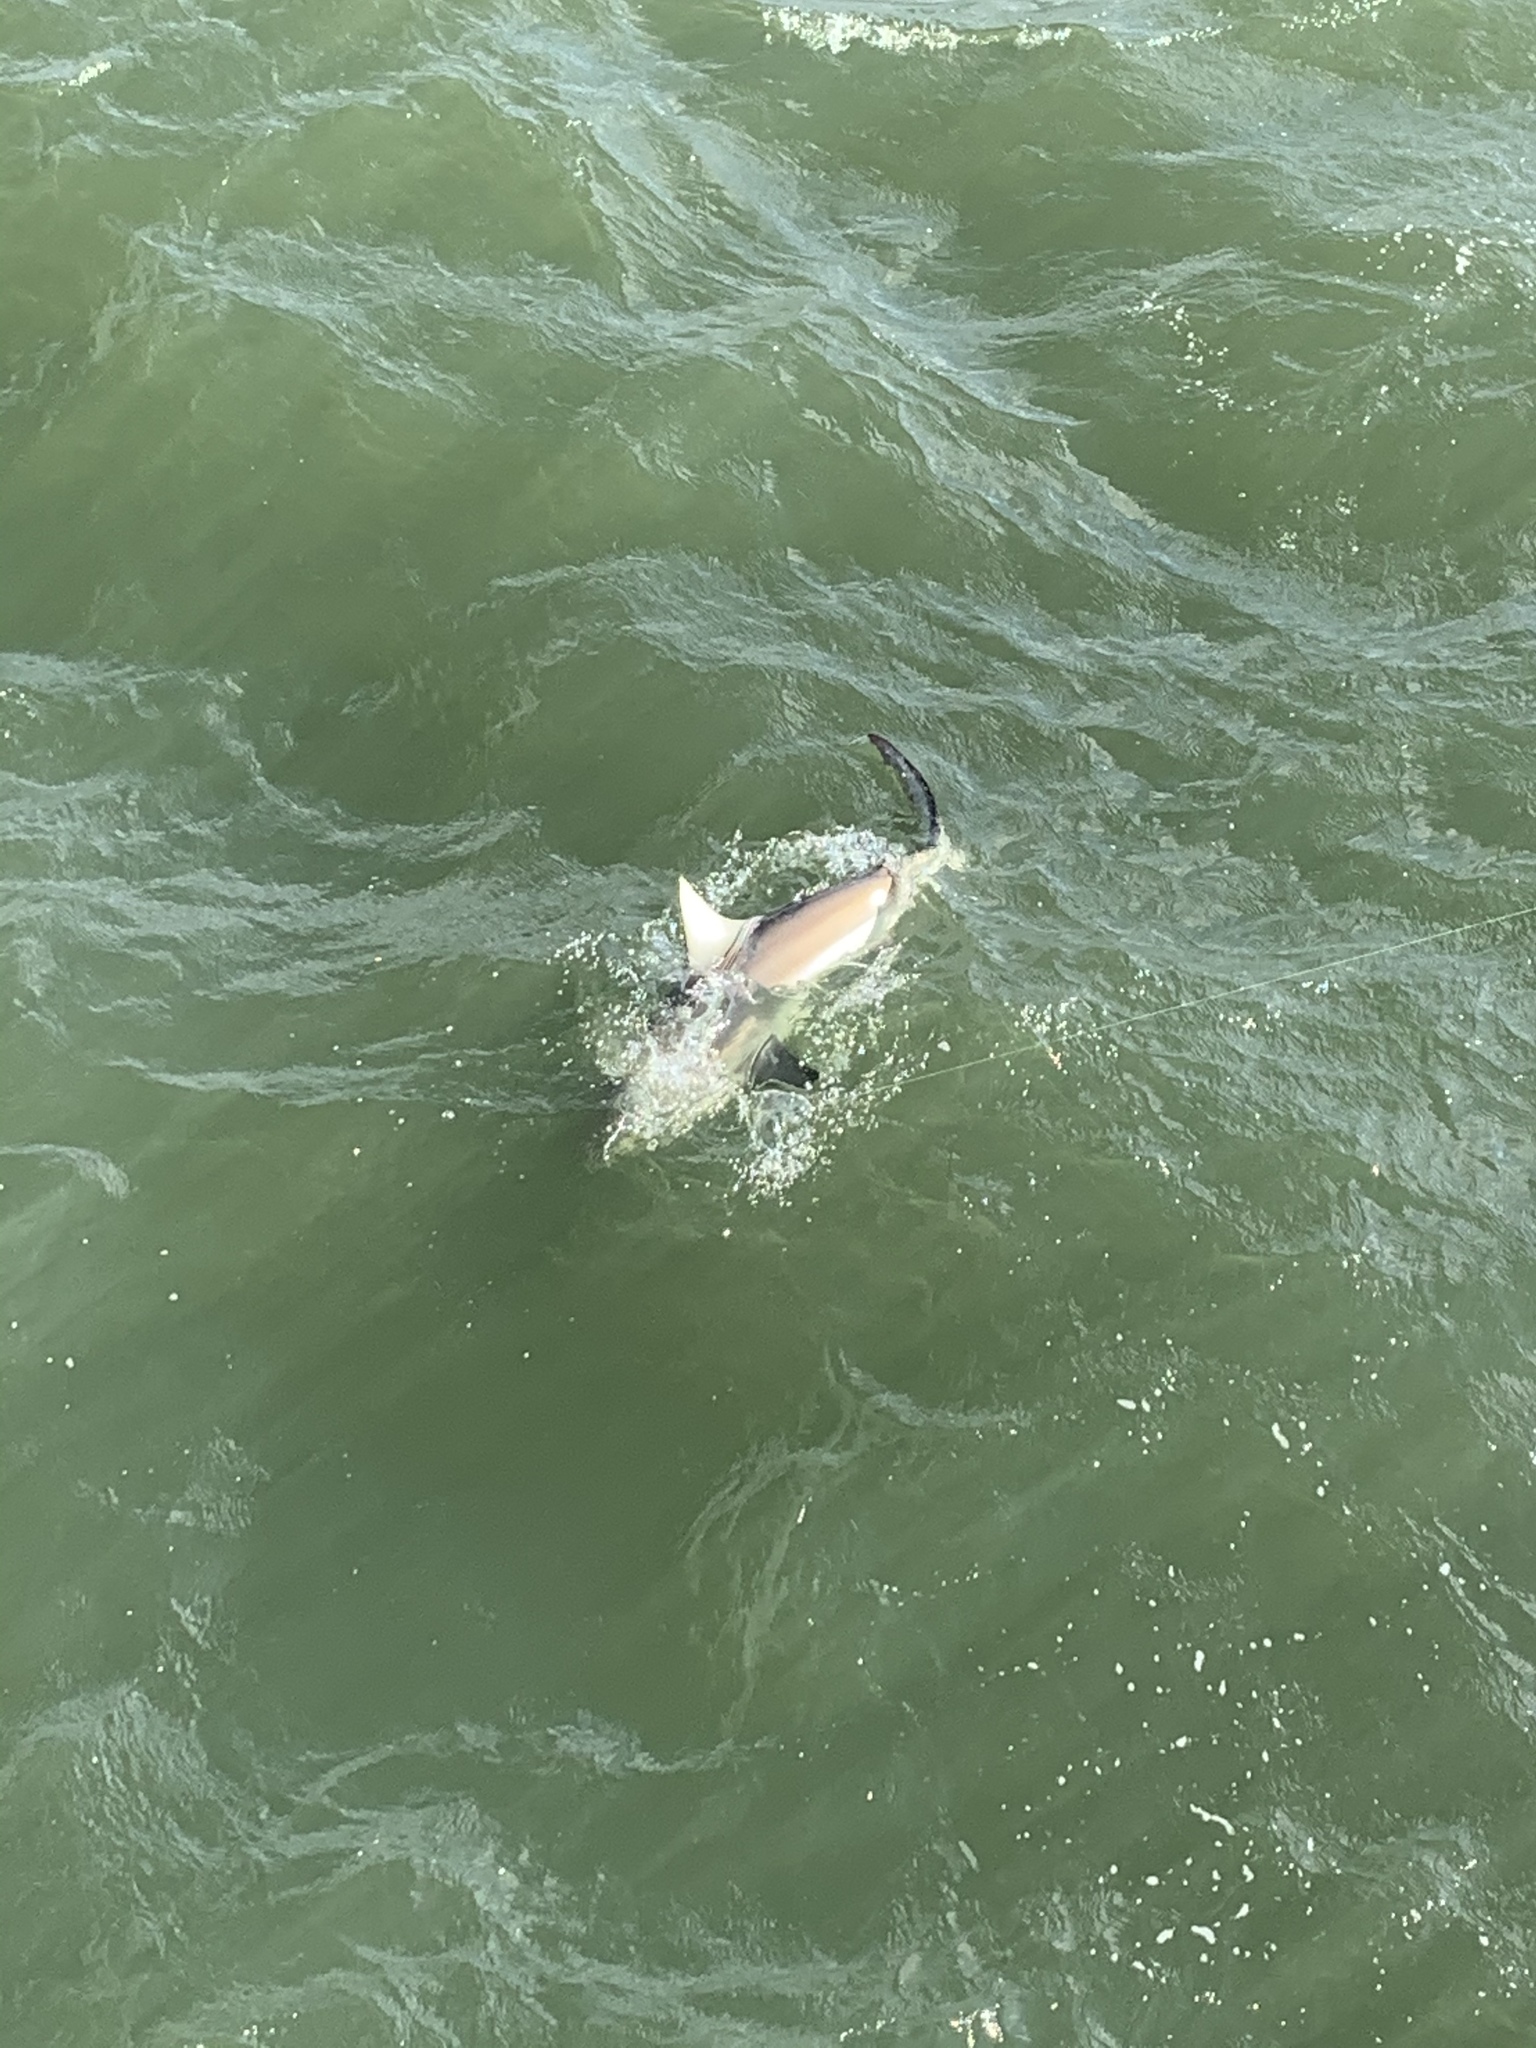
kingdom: Animalia
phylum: Chordata
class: Elasmobranchii
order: Carcharhiniformes
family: Carcharhinidae
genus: Carcharhinus
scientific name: Carcharhinus limbatus
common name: Blacktip shark
